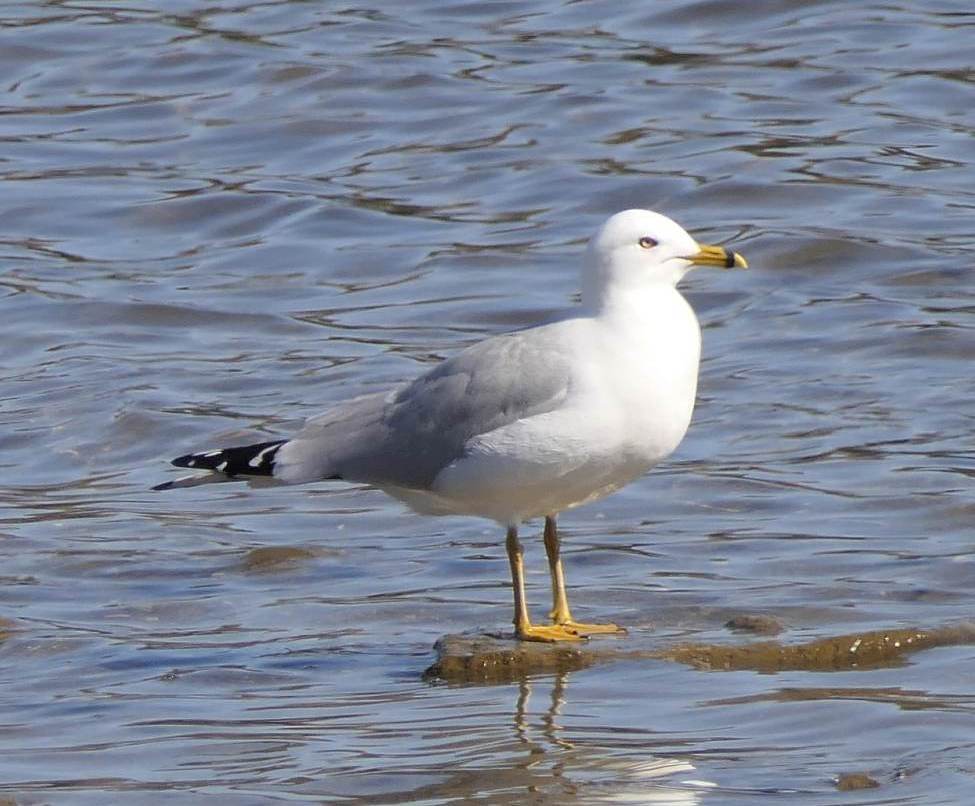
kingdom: Animalia
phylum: Chordata
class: Aves
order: Charadriiformes
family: Laridae
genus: Larus
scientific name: Larus delawarensis
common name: Ring-billed gull
